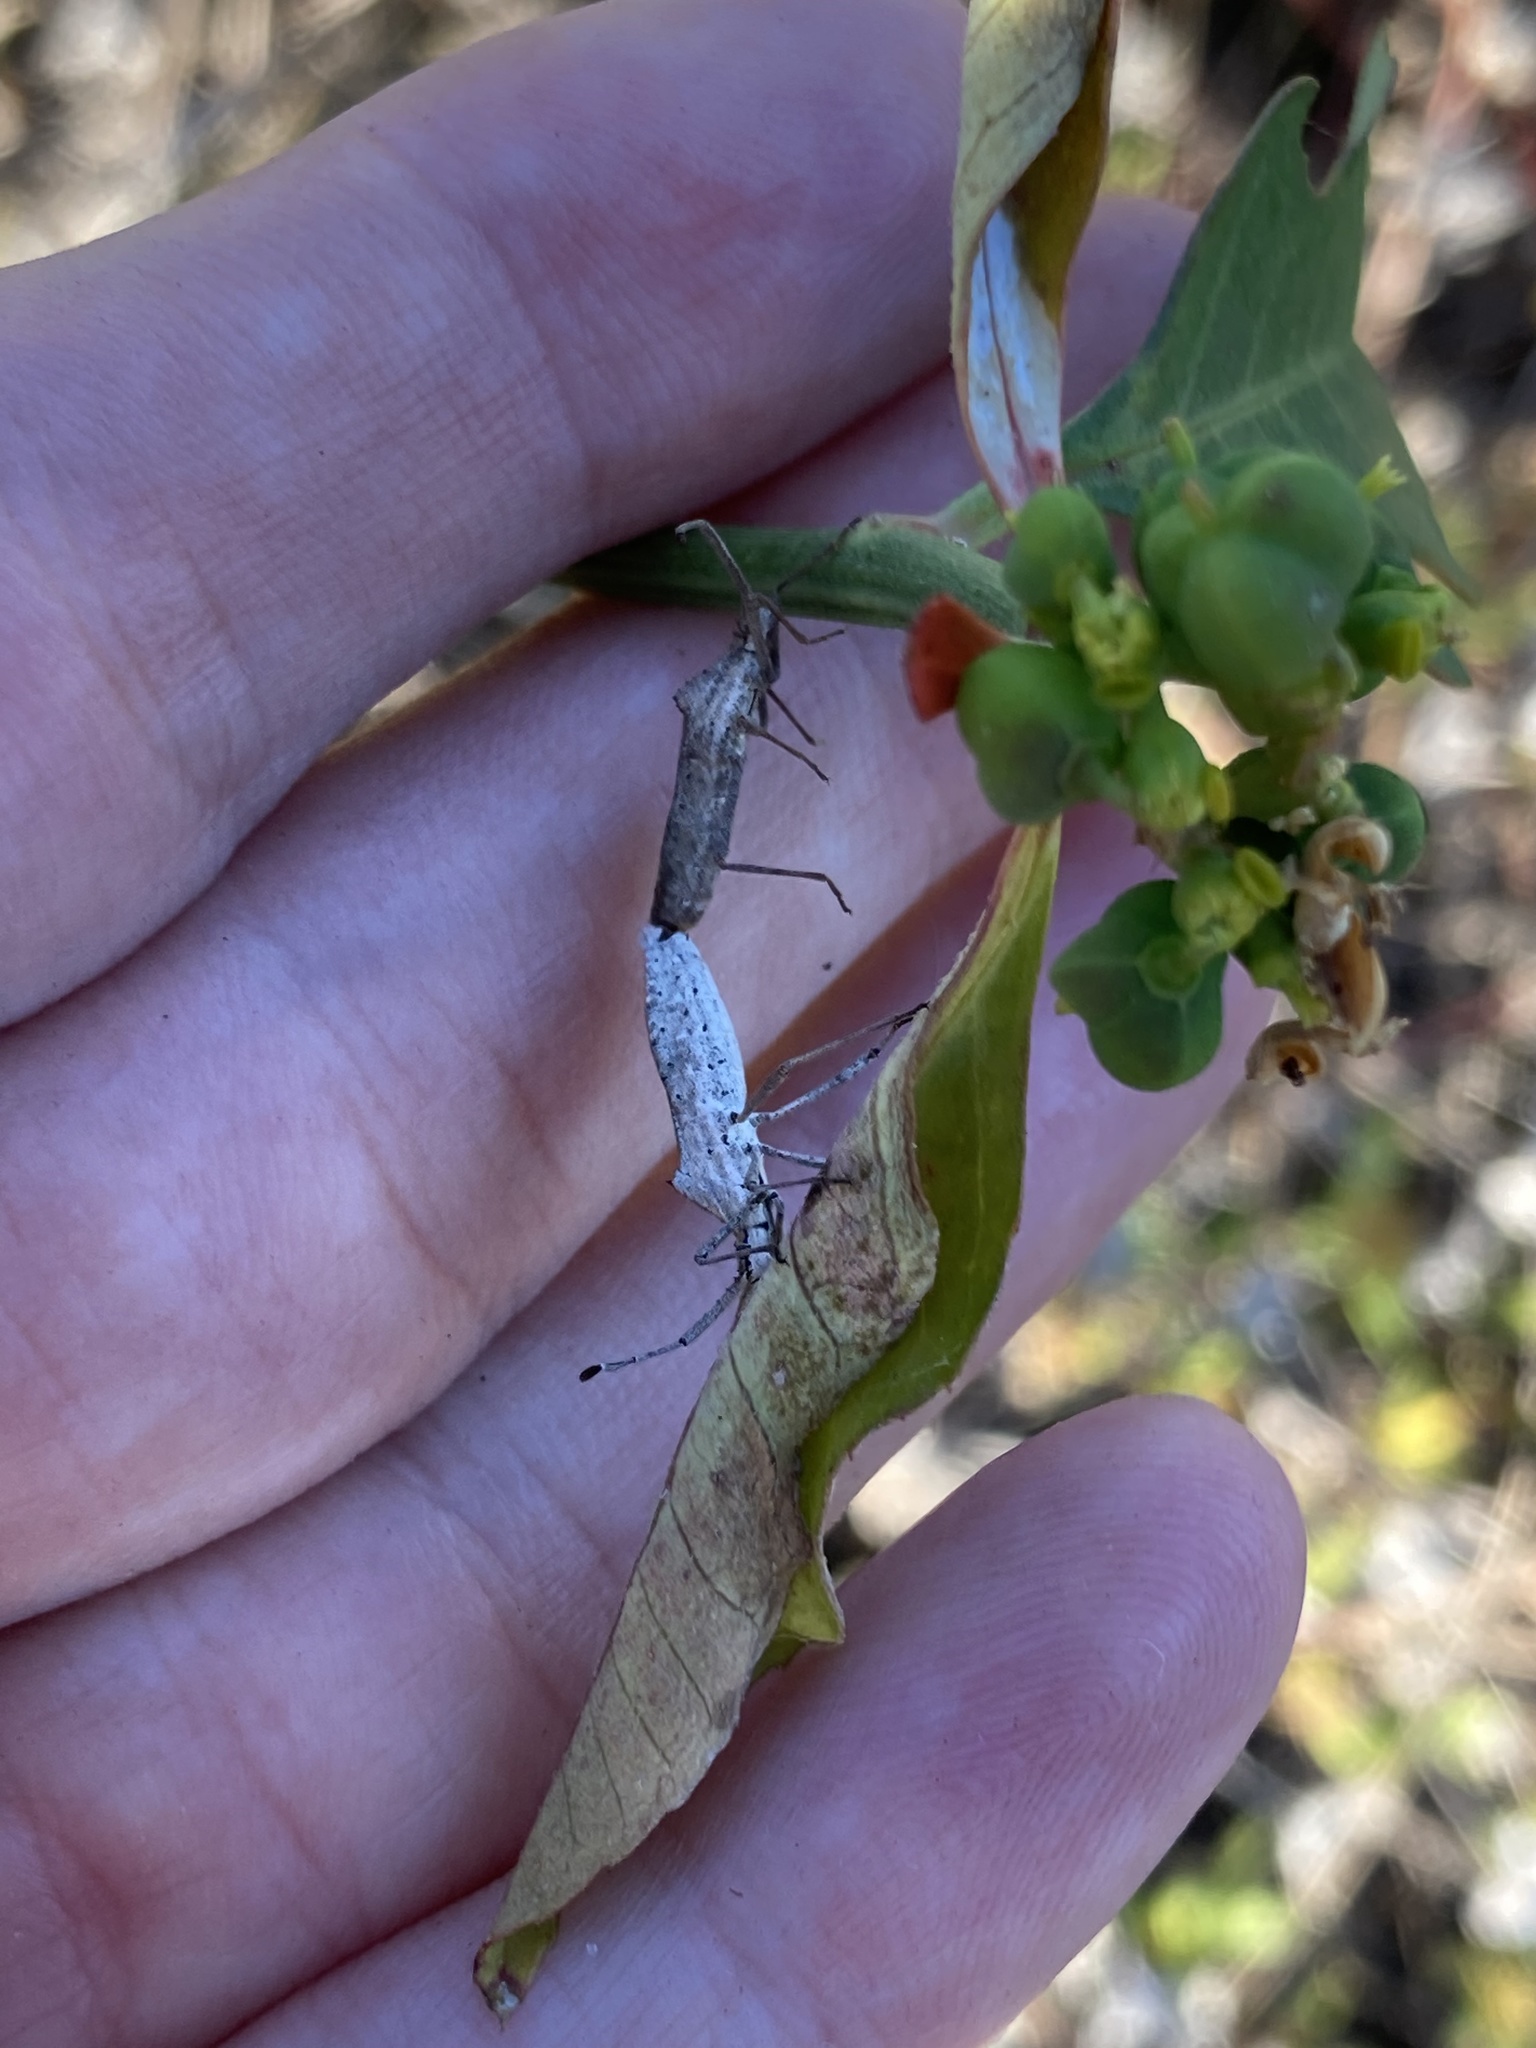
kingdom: Animalia
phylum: Arthropoda
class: Insecta
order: Hemiptera
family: Coreidae
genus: Chariesterus
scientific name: Chariesterus antennator
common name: Flat horned coreid
